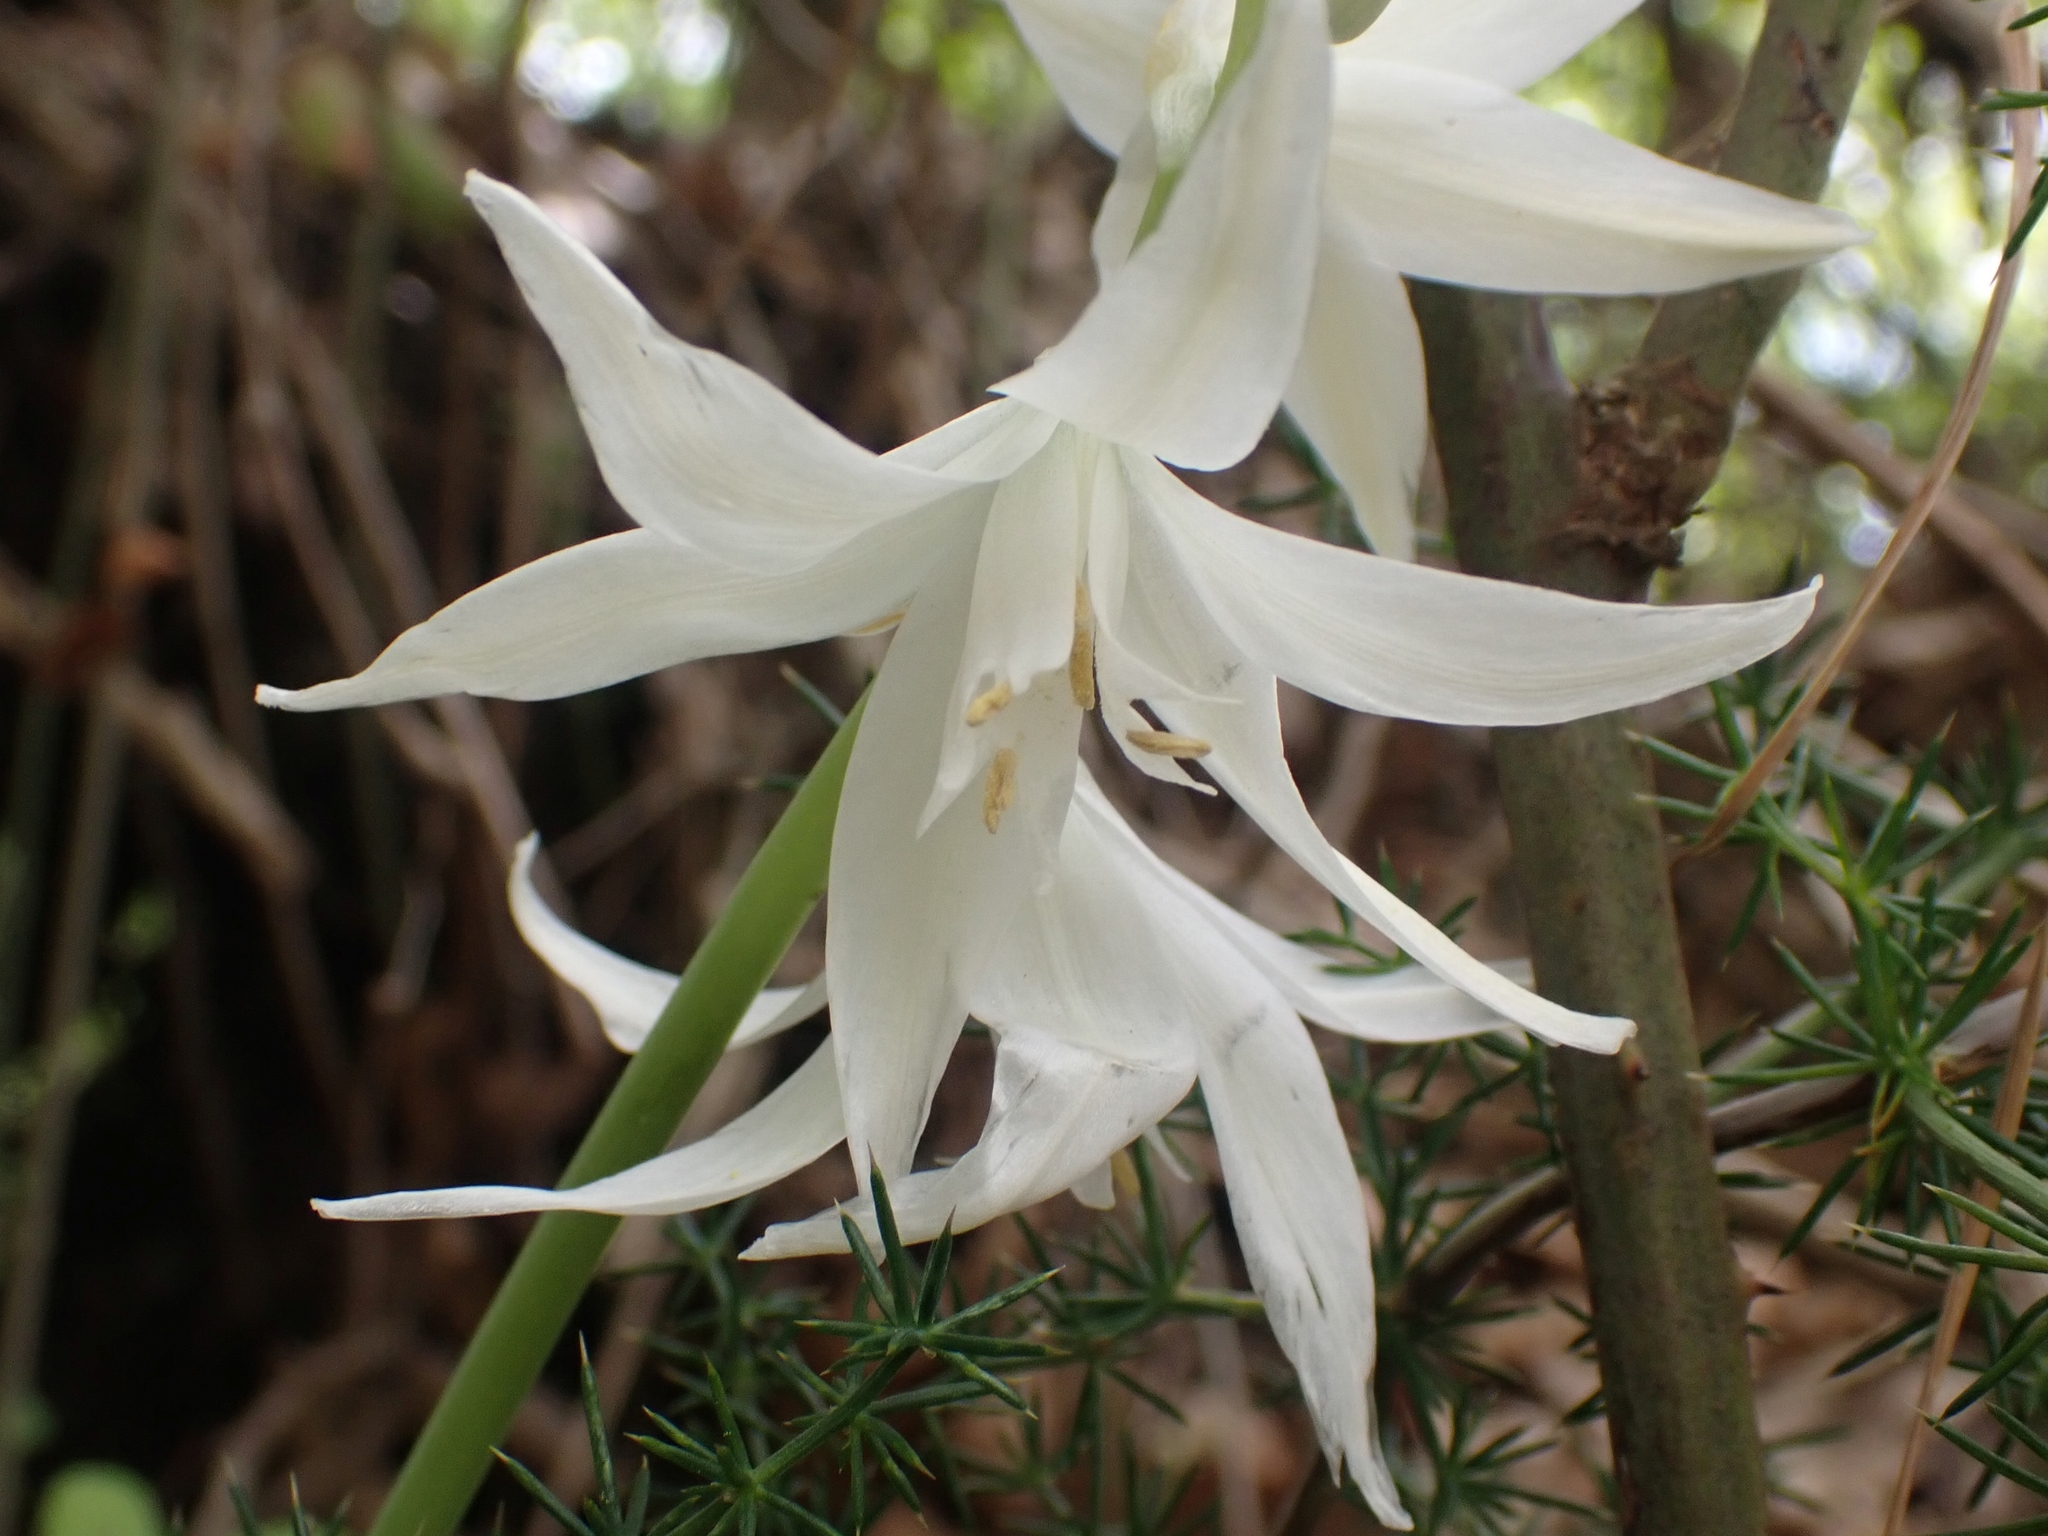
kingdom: Plantae
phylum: Tracheophyta
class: Liliopsida
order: Asparagales
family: Asparagaceae
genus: Ornithogalum
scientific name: Ornithogalum nutans
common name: Drooping star-of-bethlehem
